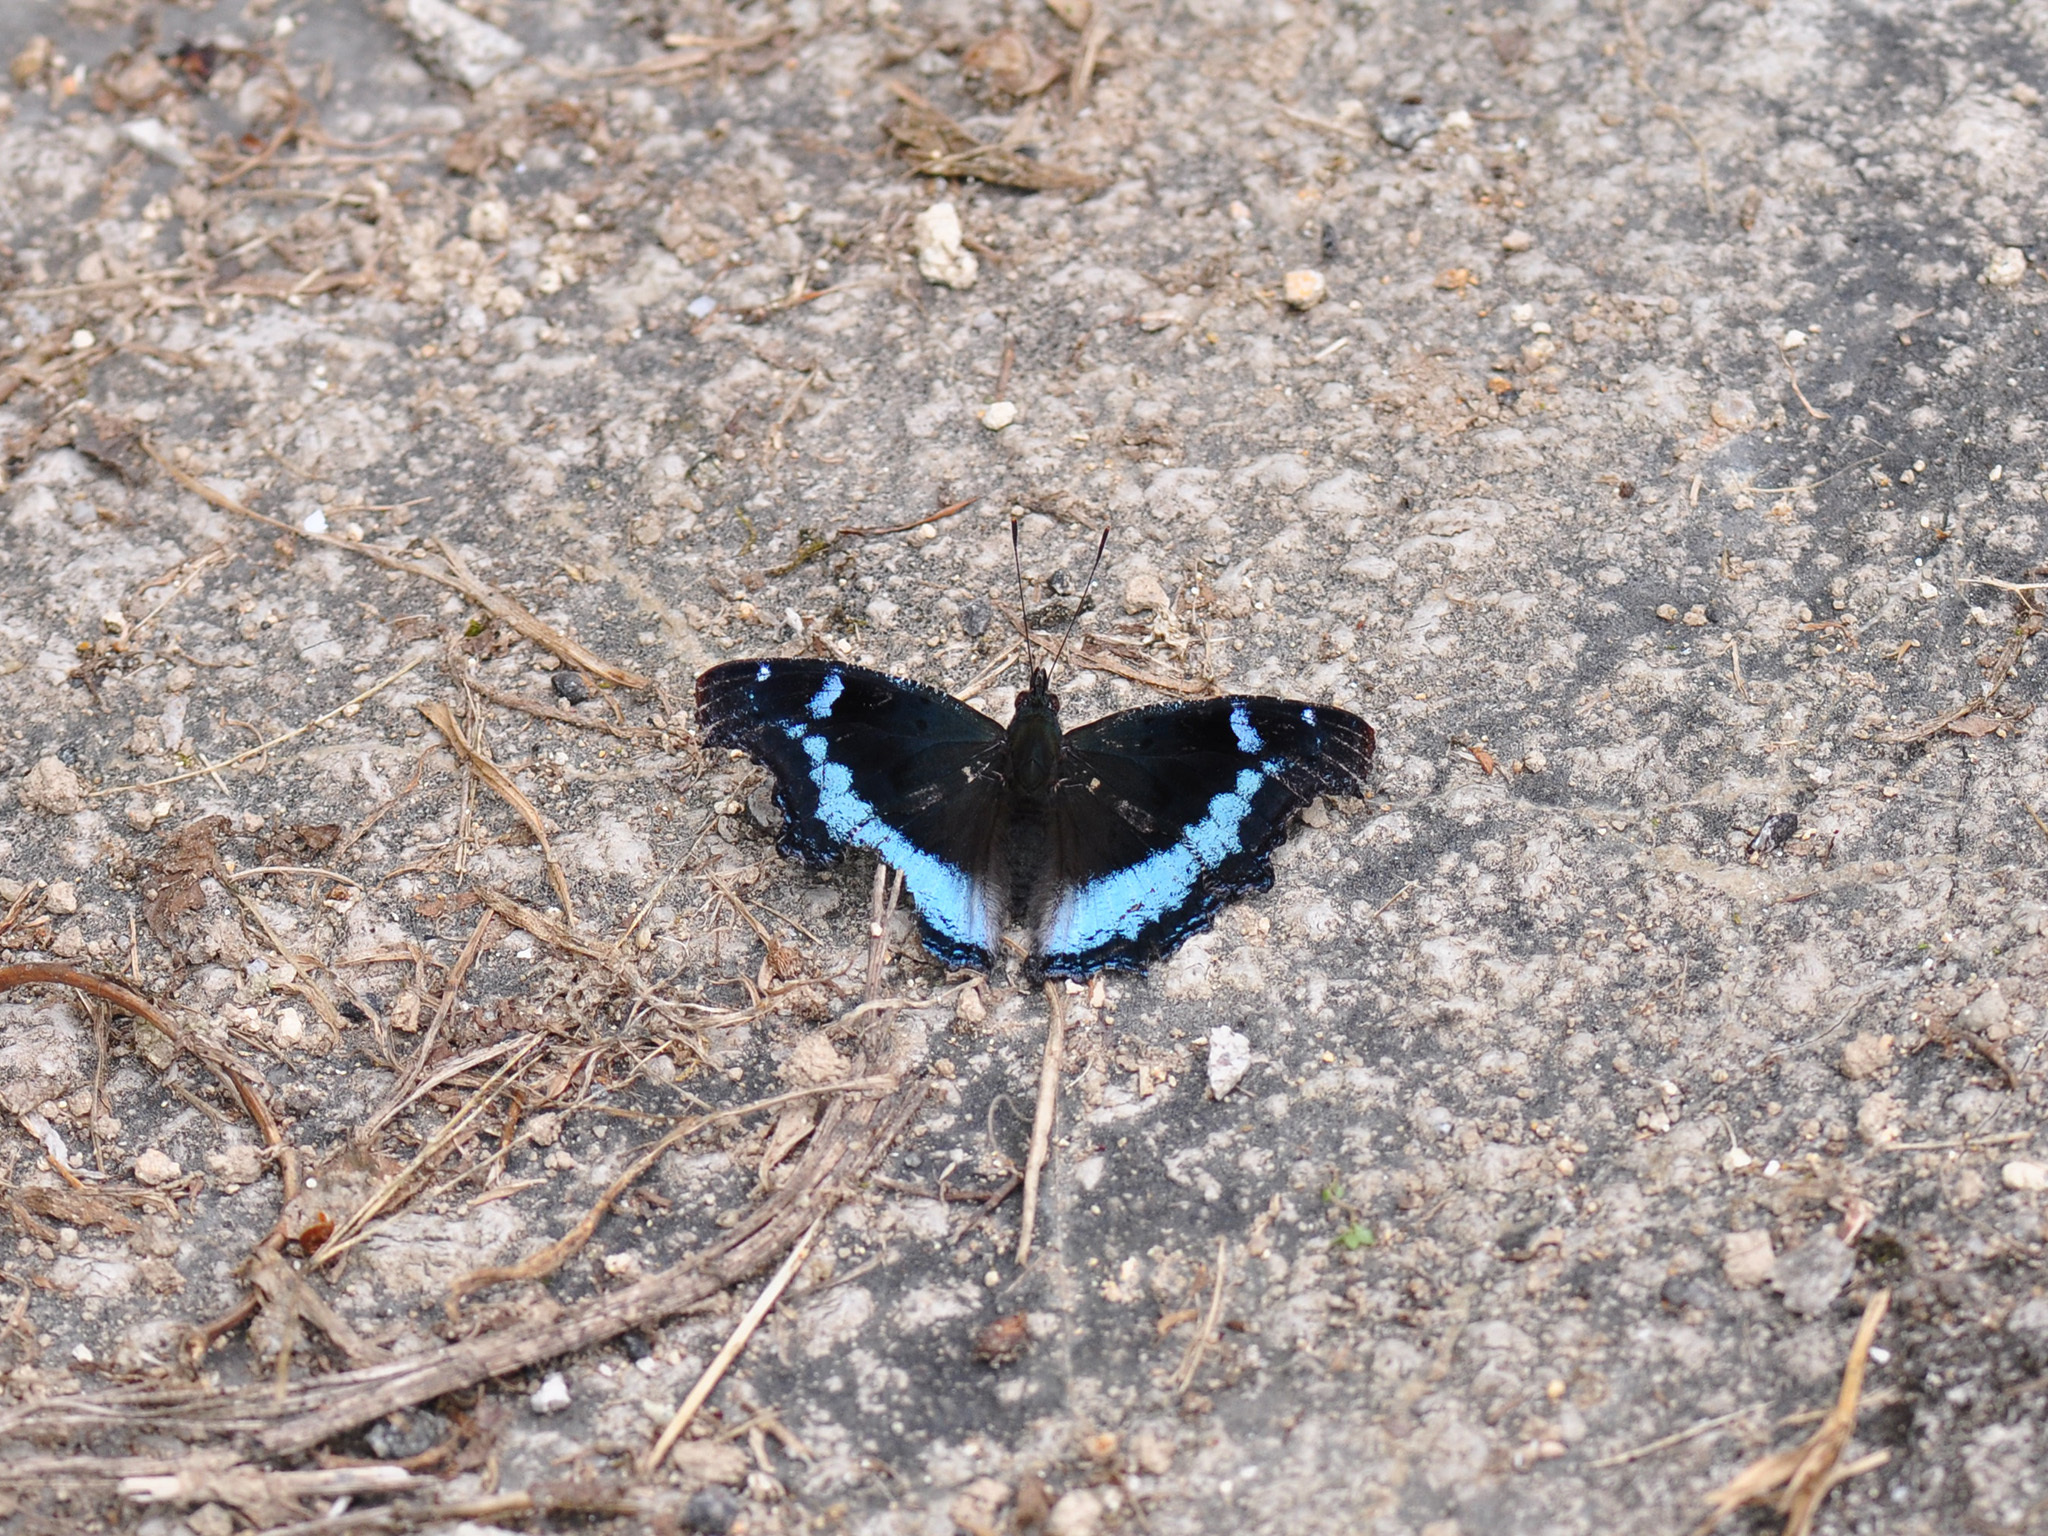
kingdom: Animalia
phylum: Arthropoda
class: Insecta
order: Lepidoptera
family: Nymphalidae
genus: Vanessa
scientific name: Vanessa Kaniska canace
